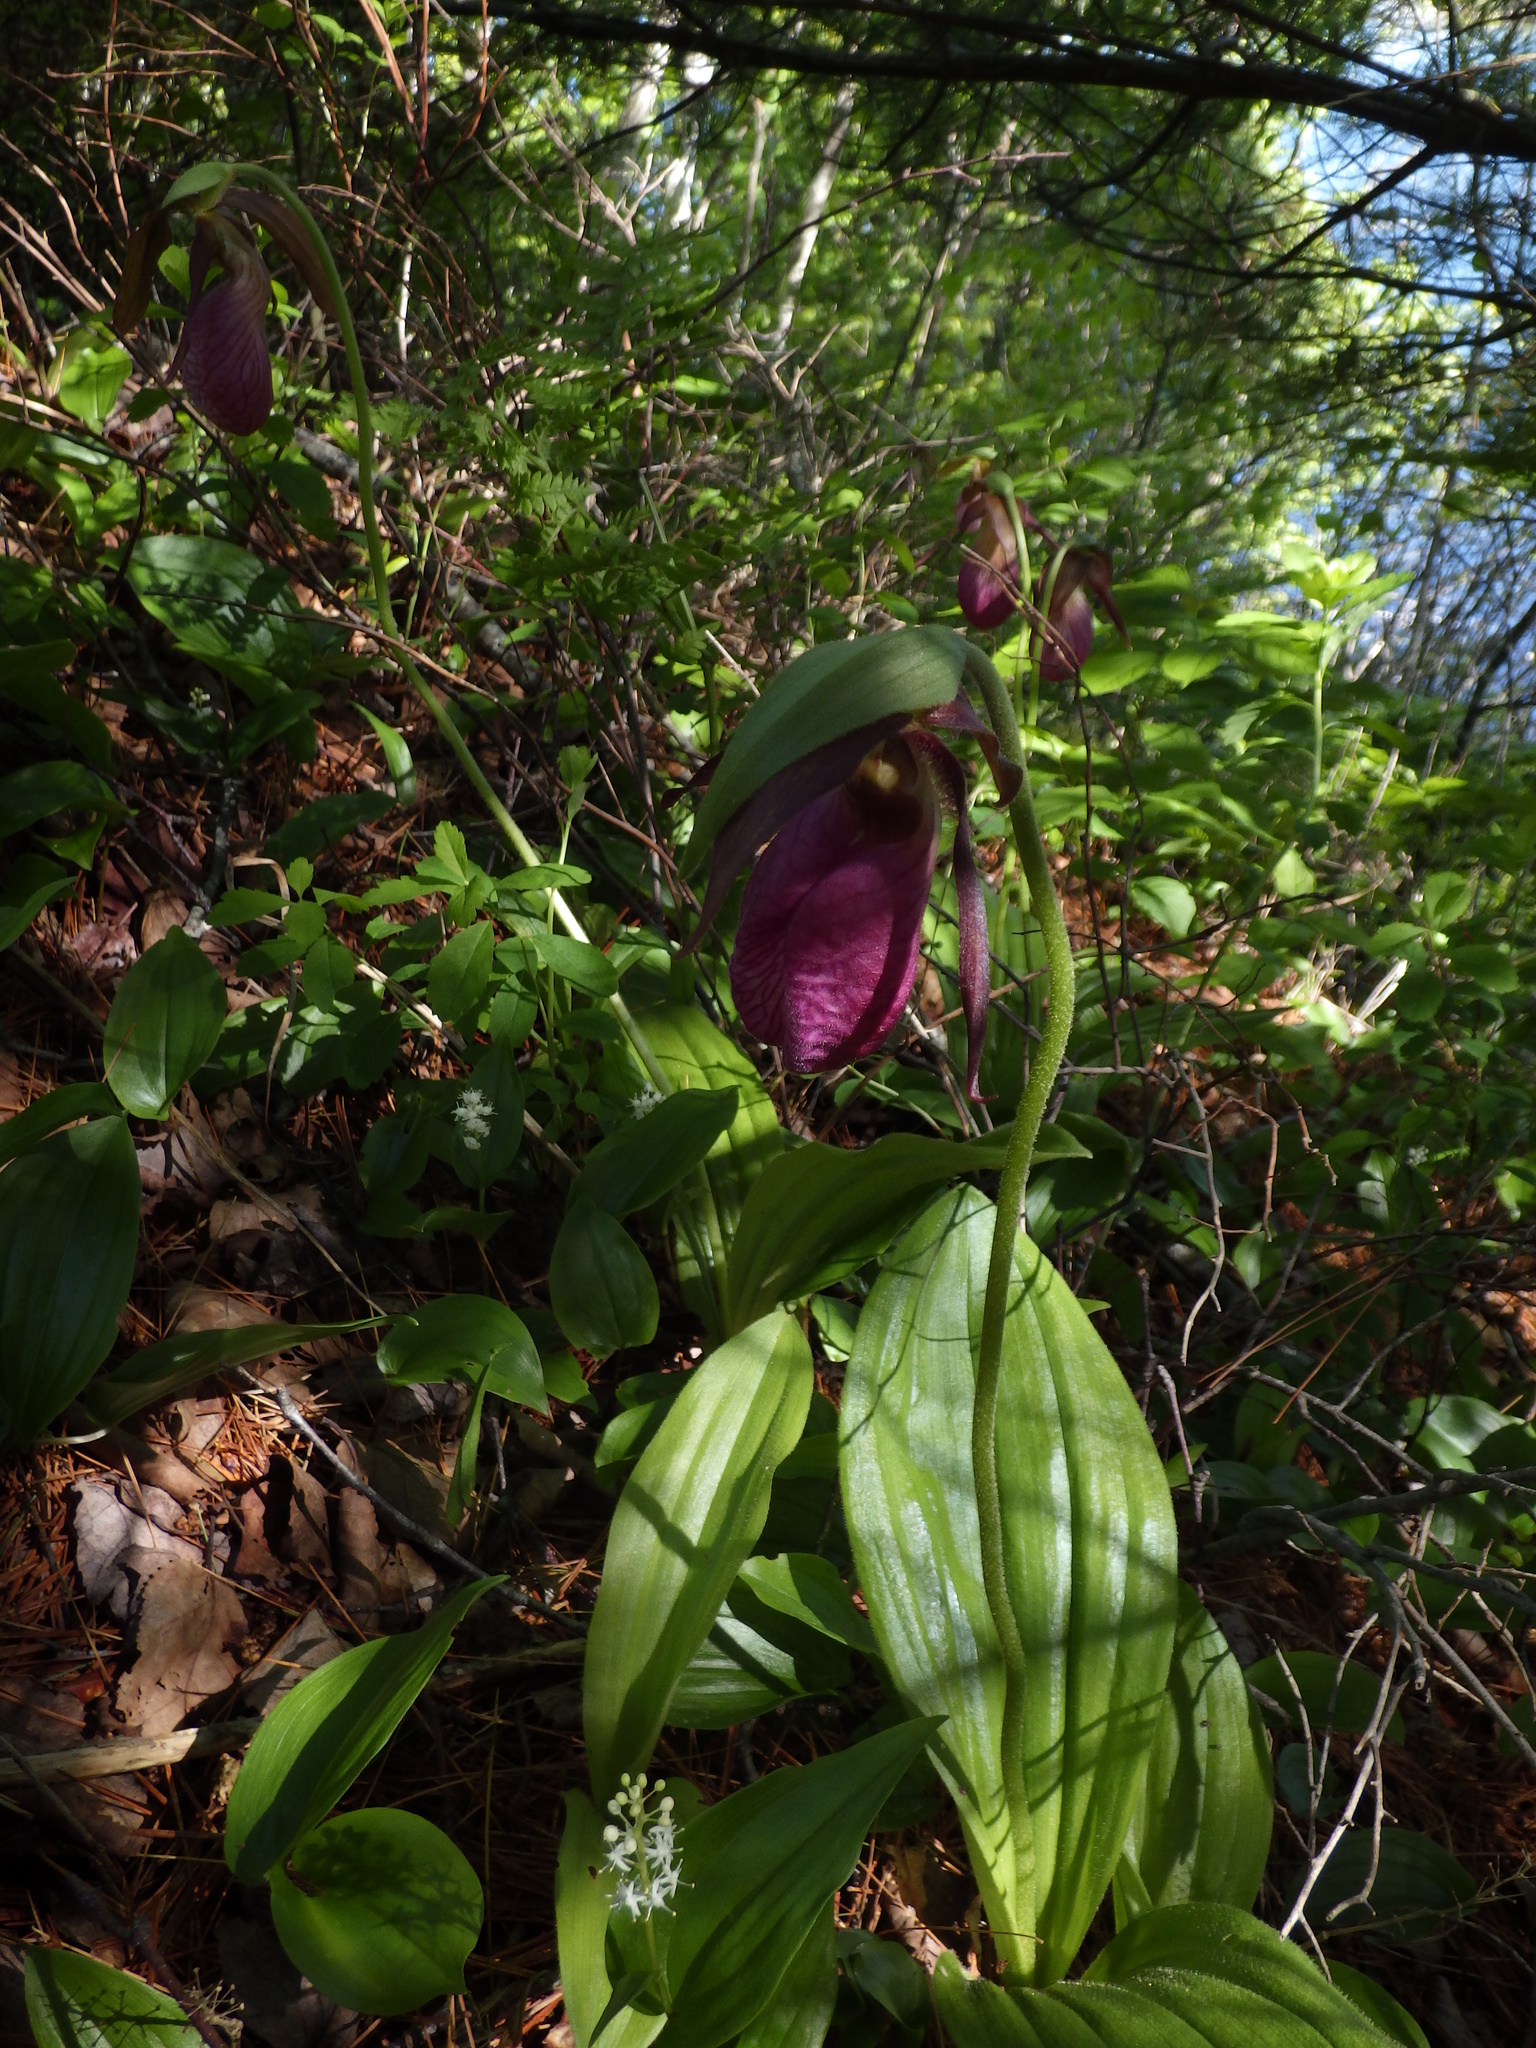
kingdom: Plantae
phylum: Tracheophyta
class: Liliopsida
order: Asparagales
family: Orchidaceae
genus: Cypripedium
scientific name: Cypripedium acaule
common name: Pink lady's-slipper
